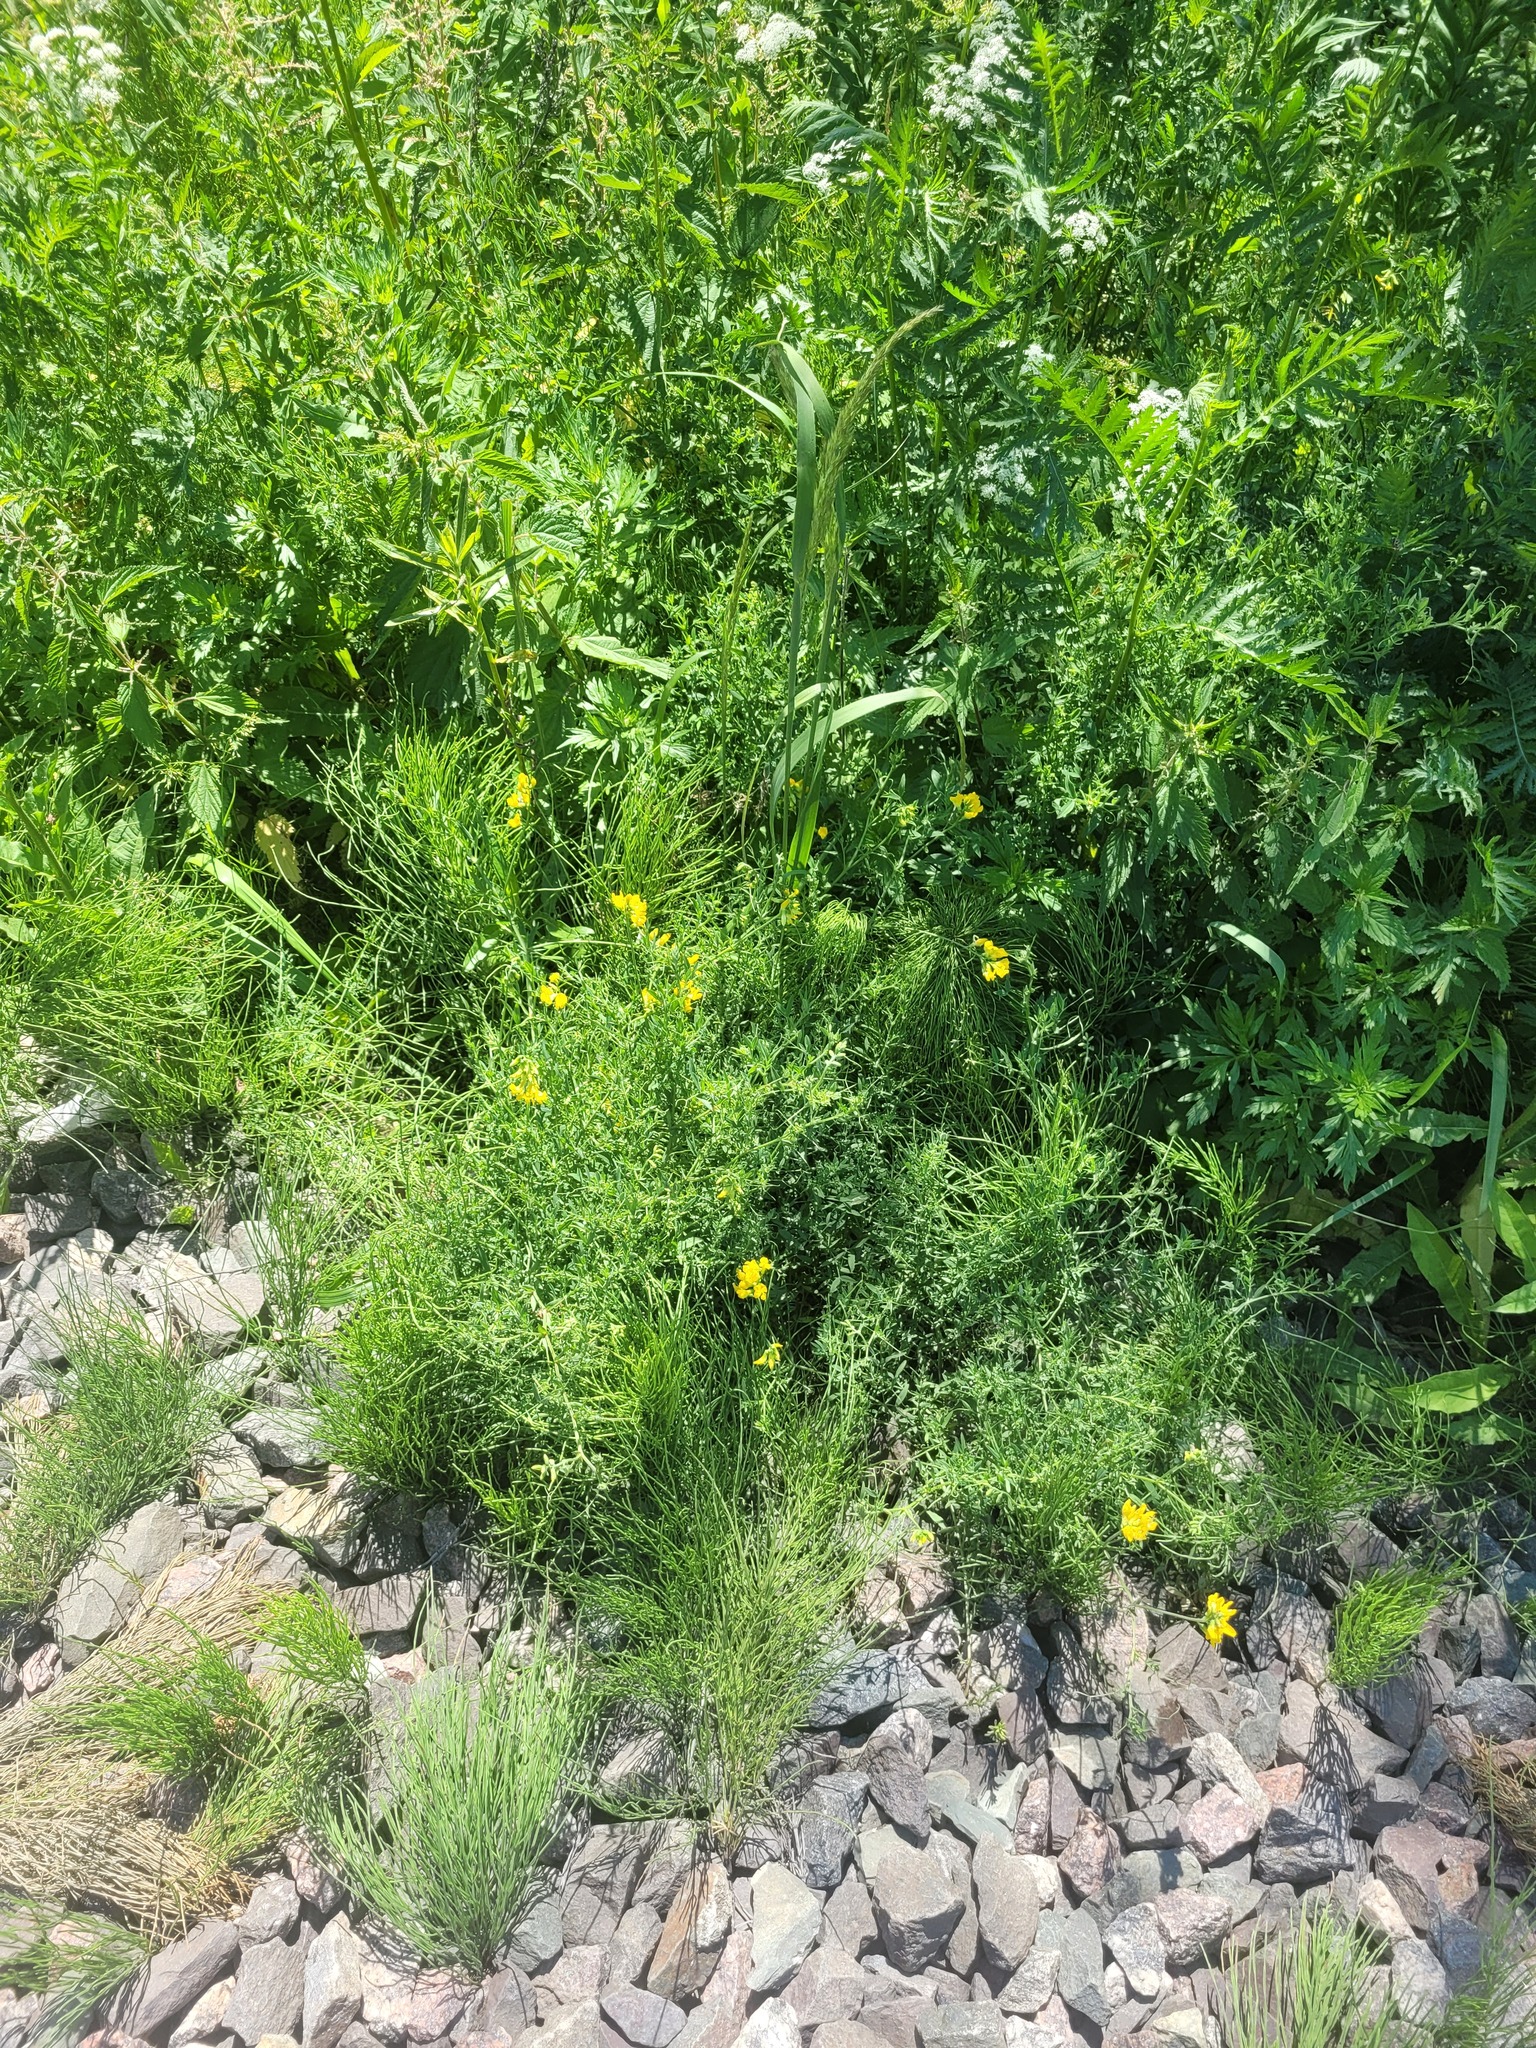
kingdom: Plantae
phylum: Tracheophyta
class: Magnoliopsida
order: Fabales
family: Fabaceae
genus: Lathyrus
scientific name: Lathyrus pratensis
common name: Meadow vetchling
